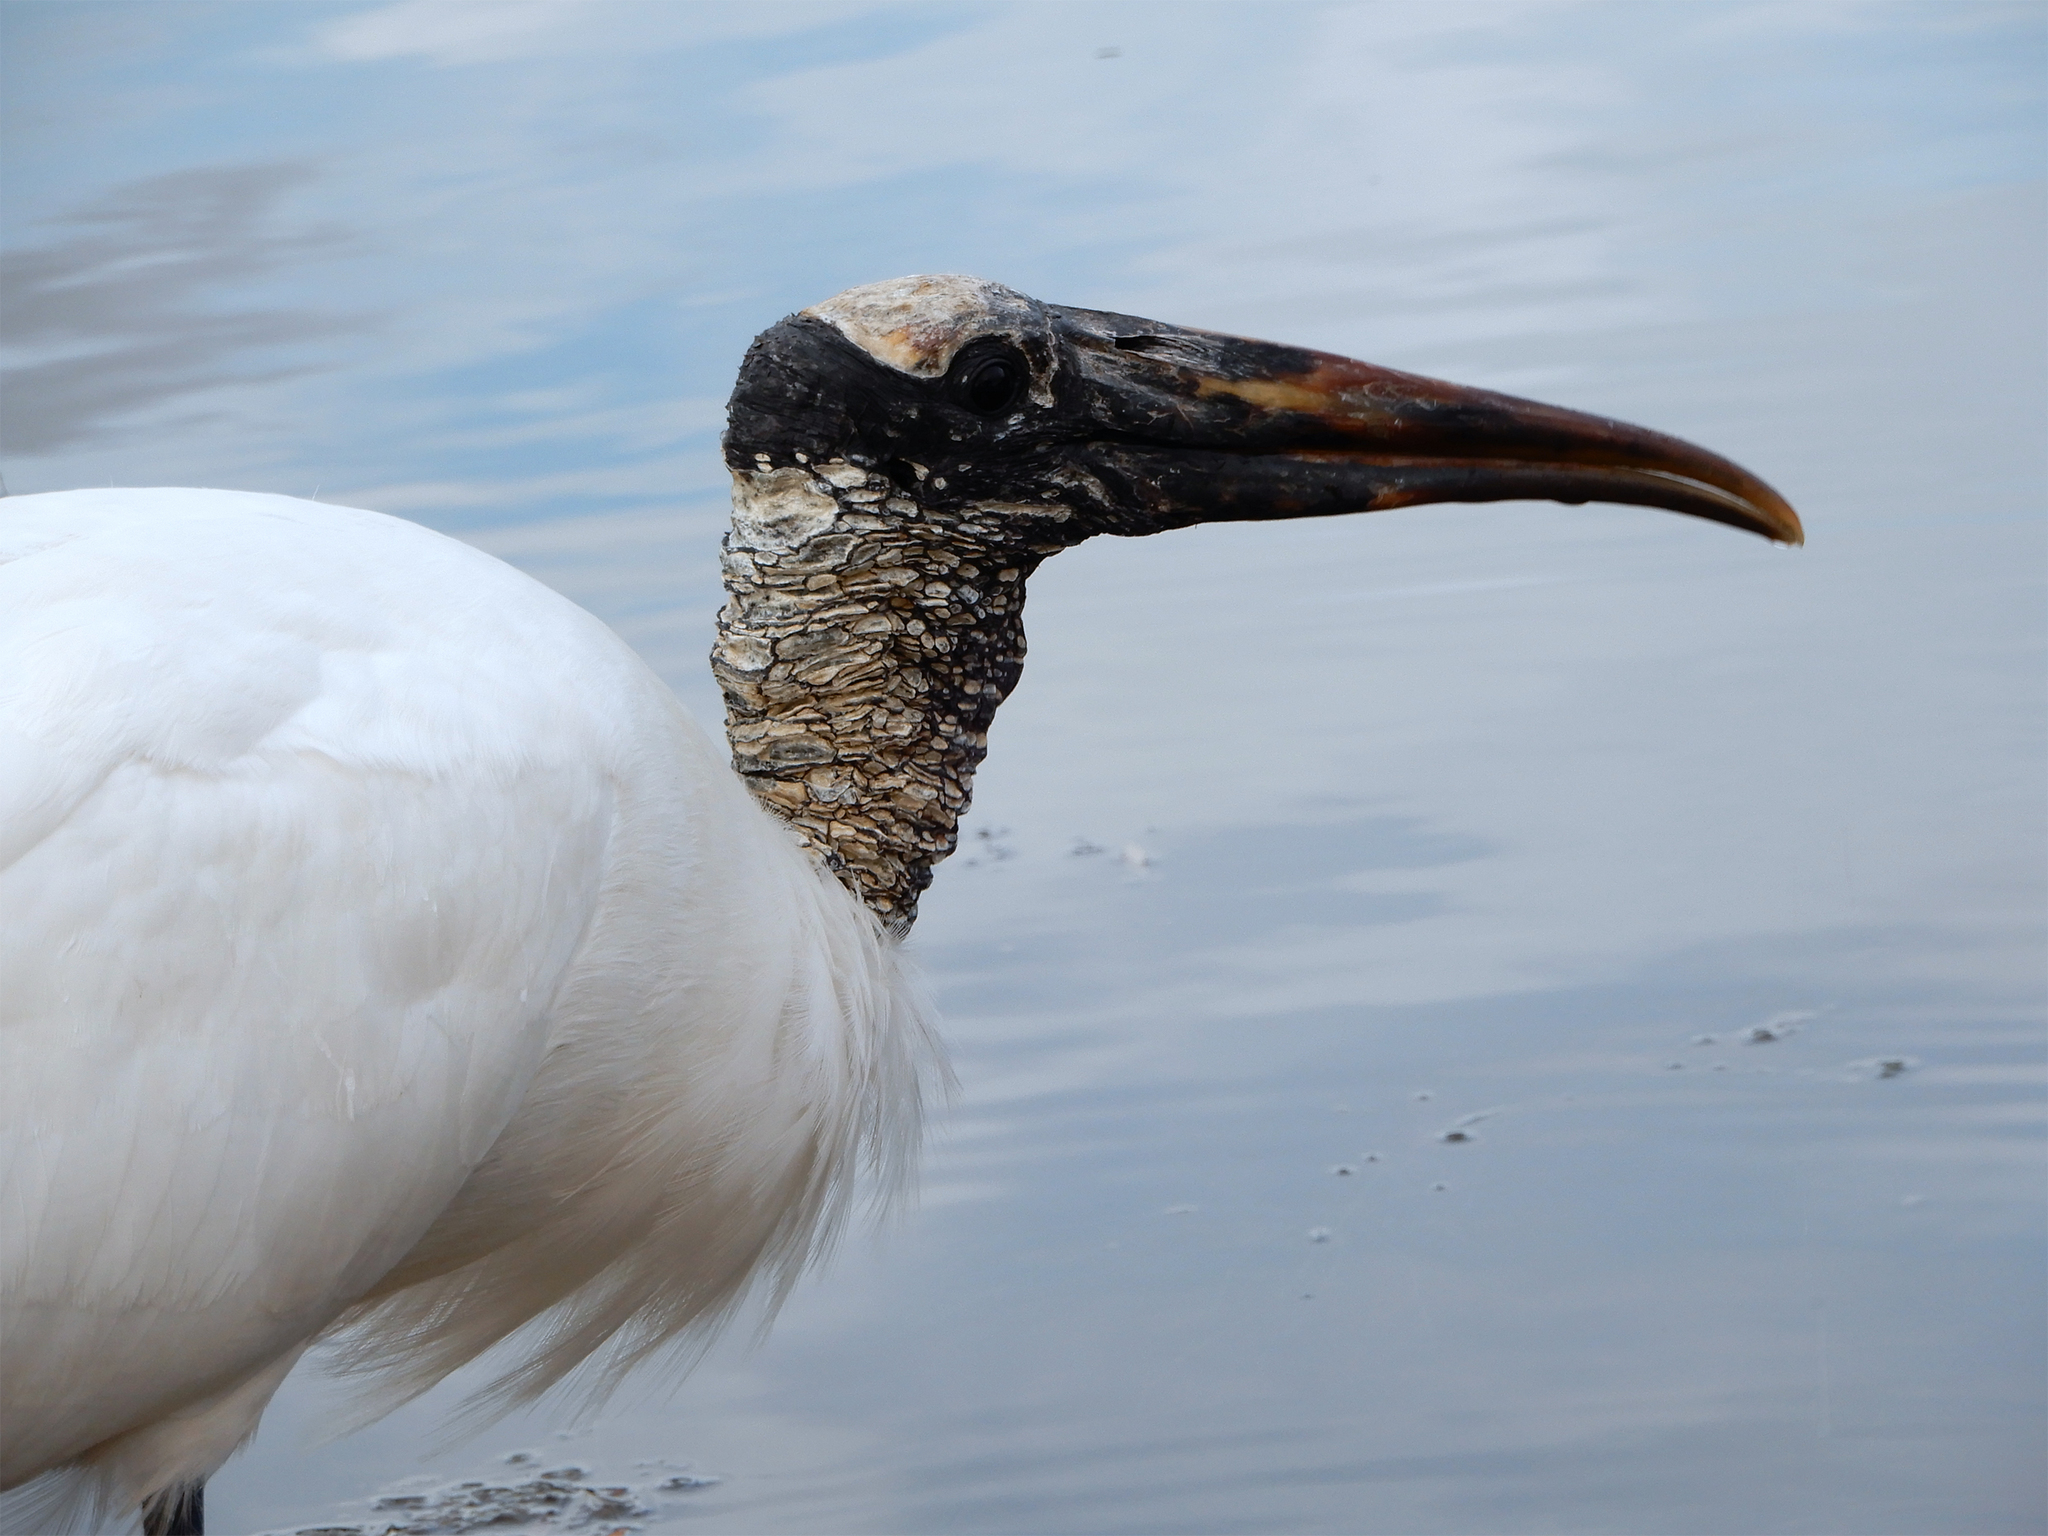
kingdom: Animalia
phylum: Chordata
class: Aves
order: Ciconiiformes
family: Ciconiidae
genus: Mycteria
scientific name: Mycteria americana
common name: Wood stork
